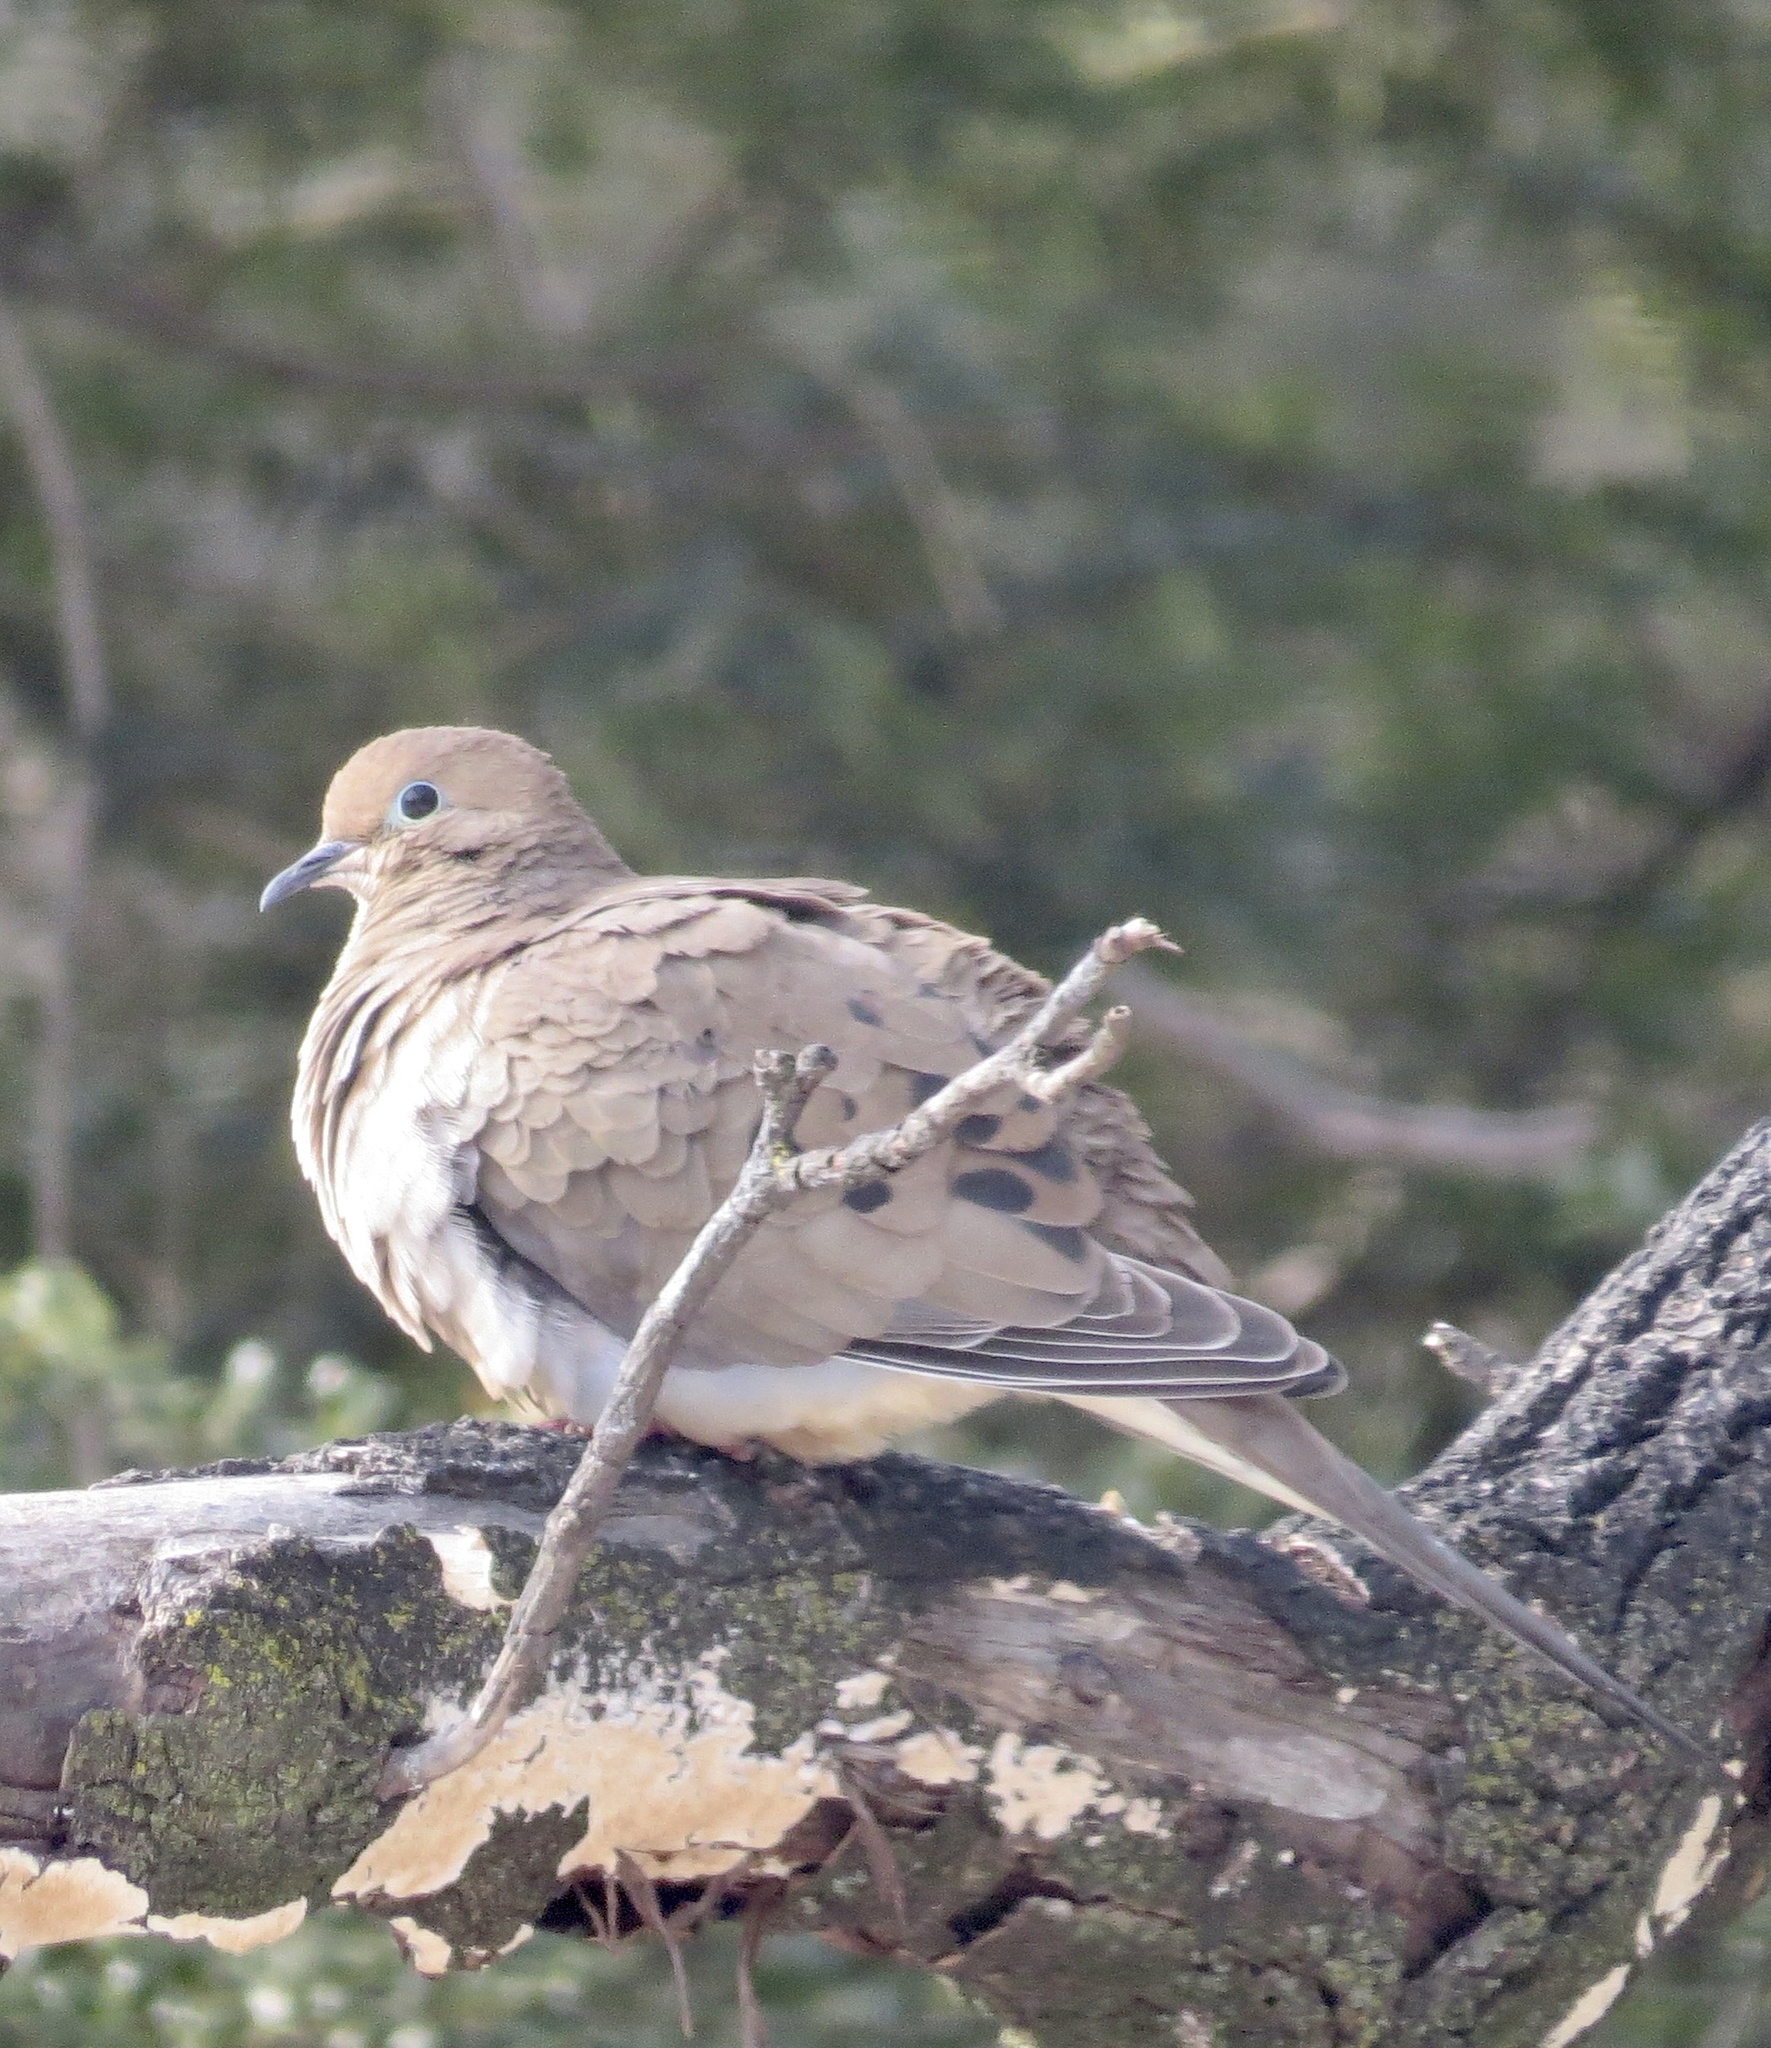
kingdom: Animalia
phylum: Chordata
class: Aves
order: Columbiformes
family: Columbidae
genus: Zenaida
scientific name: Zenaida macroura
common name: Mourning dove
